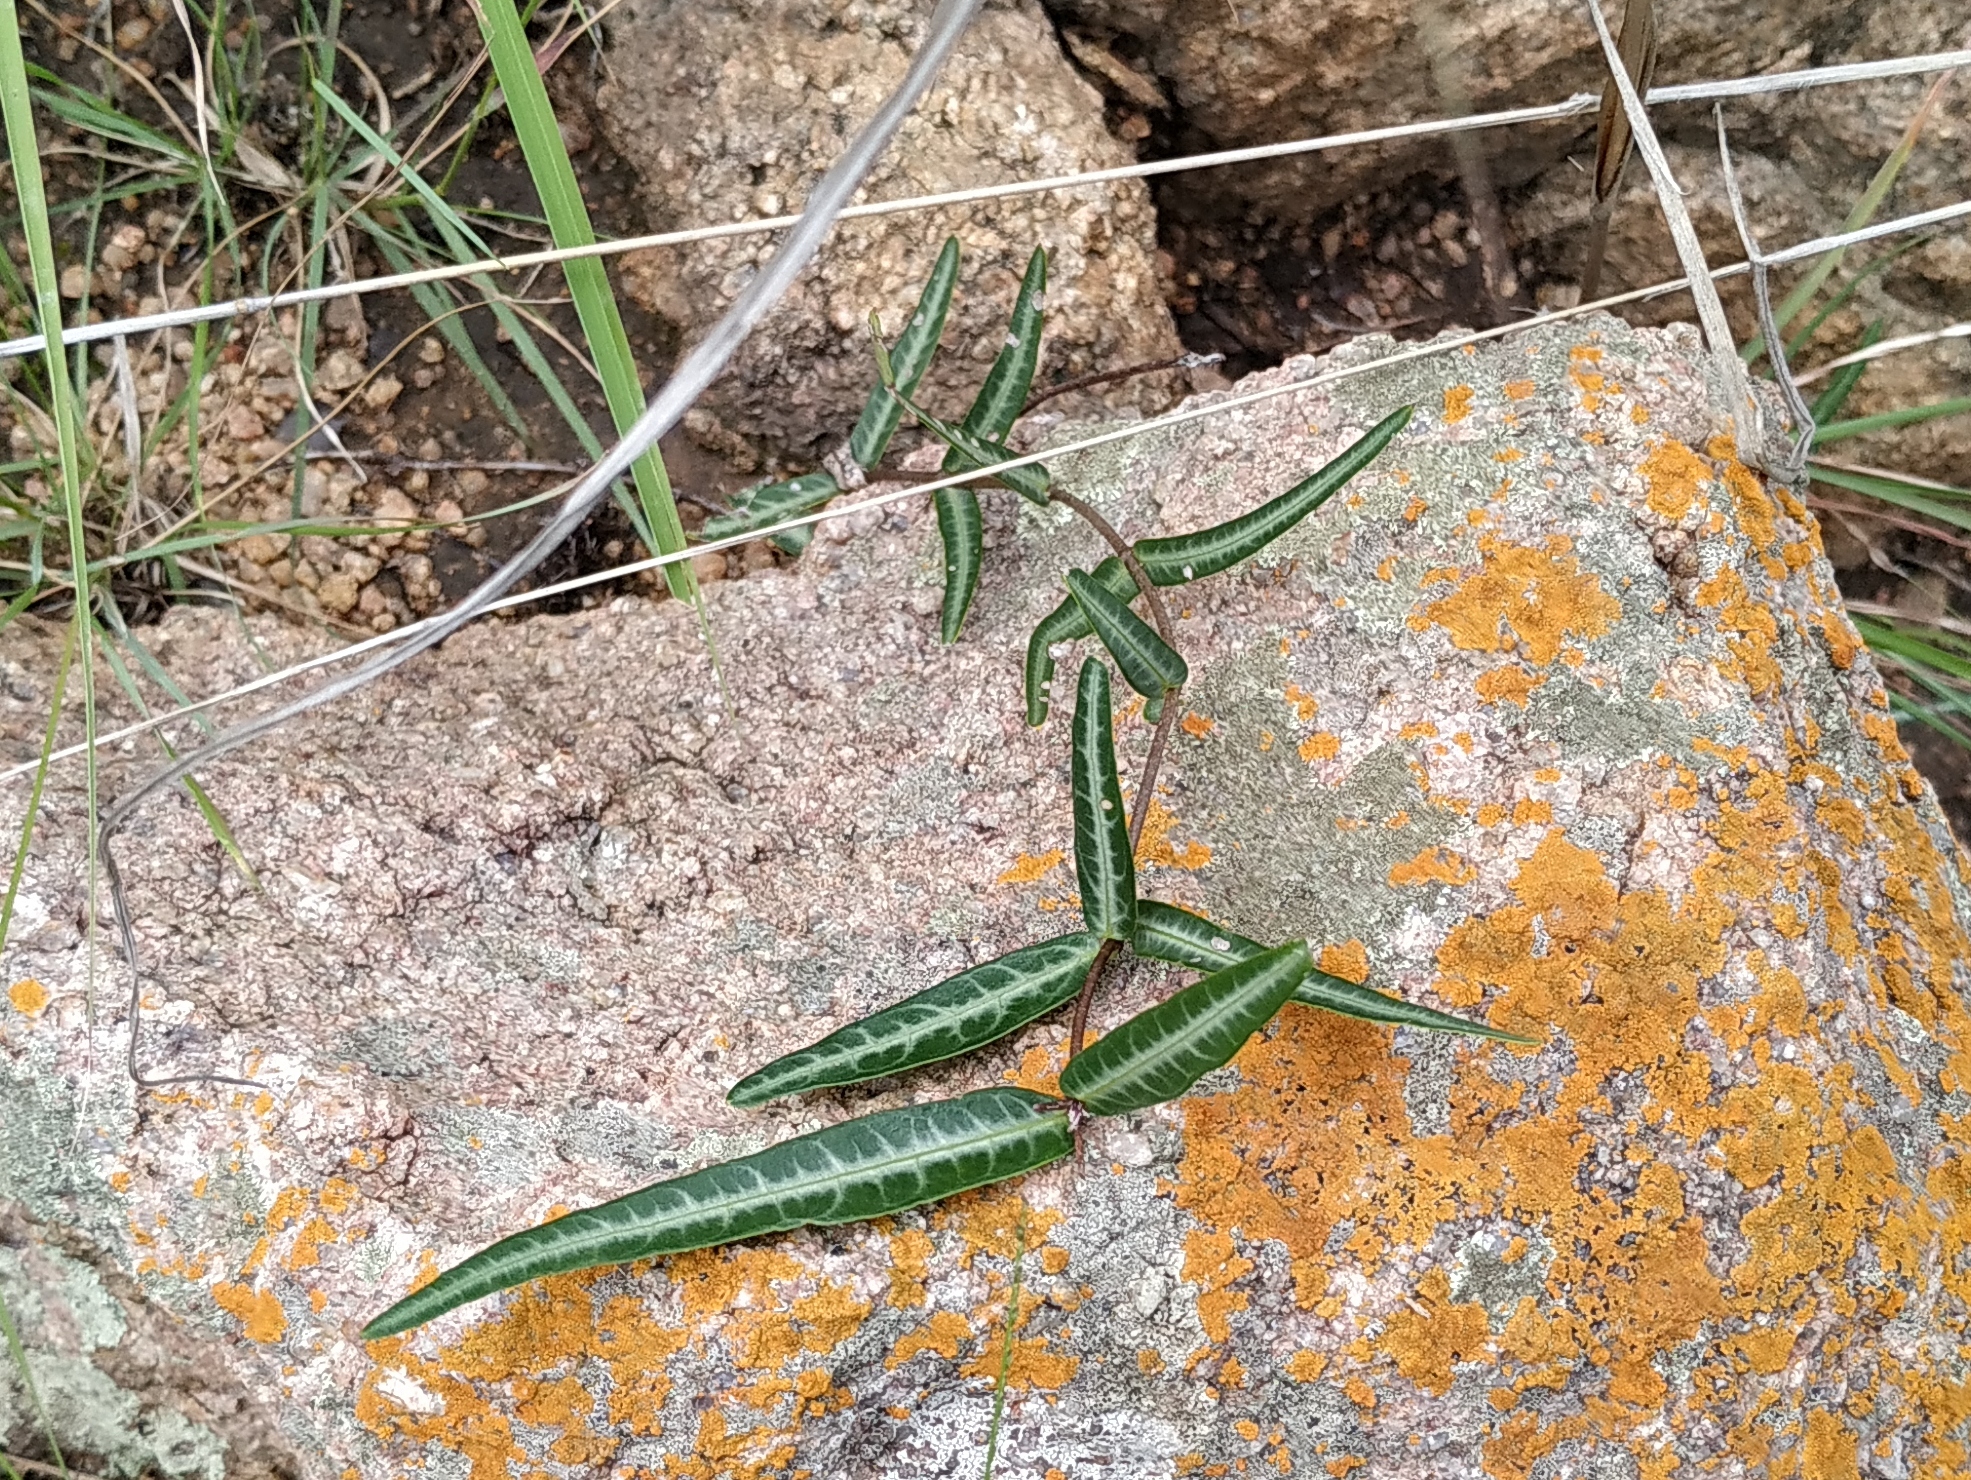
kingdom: Plantae
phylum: Tracheophyta
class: Magnoliopsida
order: Gentianales
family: Apocynaceae
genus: Hemidesmus
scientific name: Hemidesmus indicus
